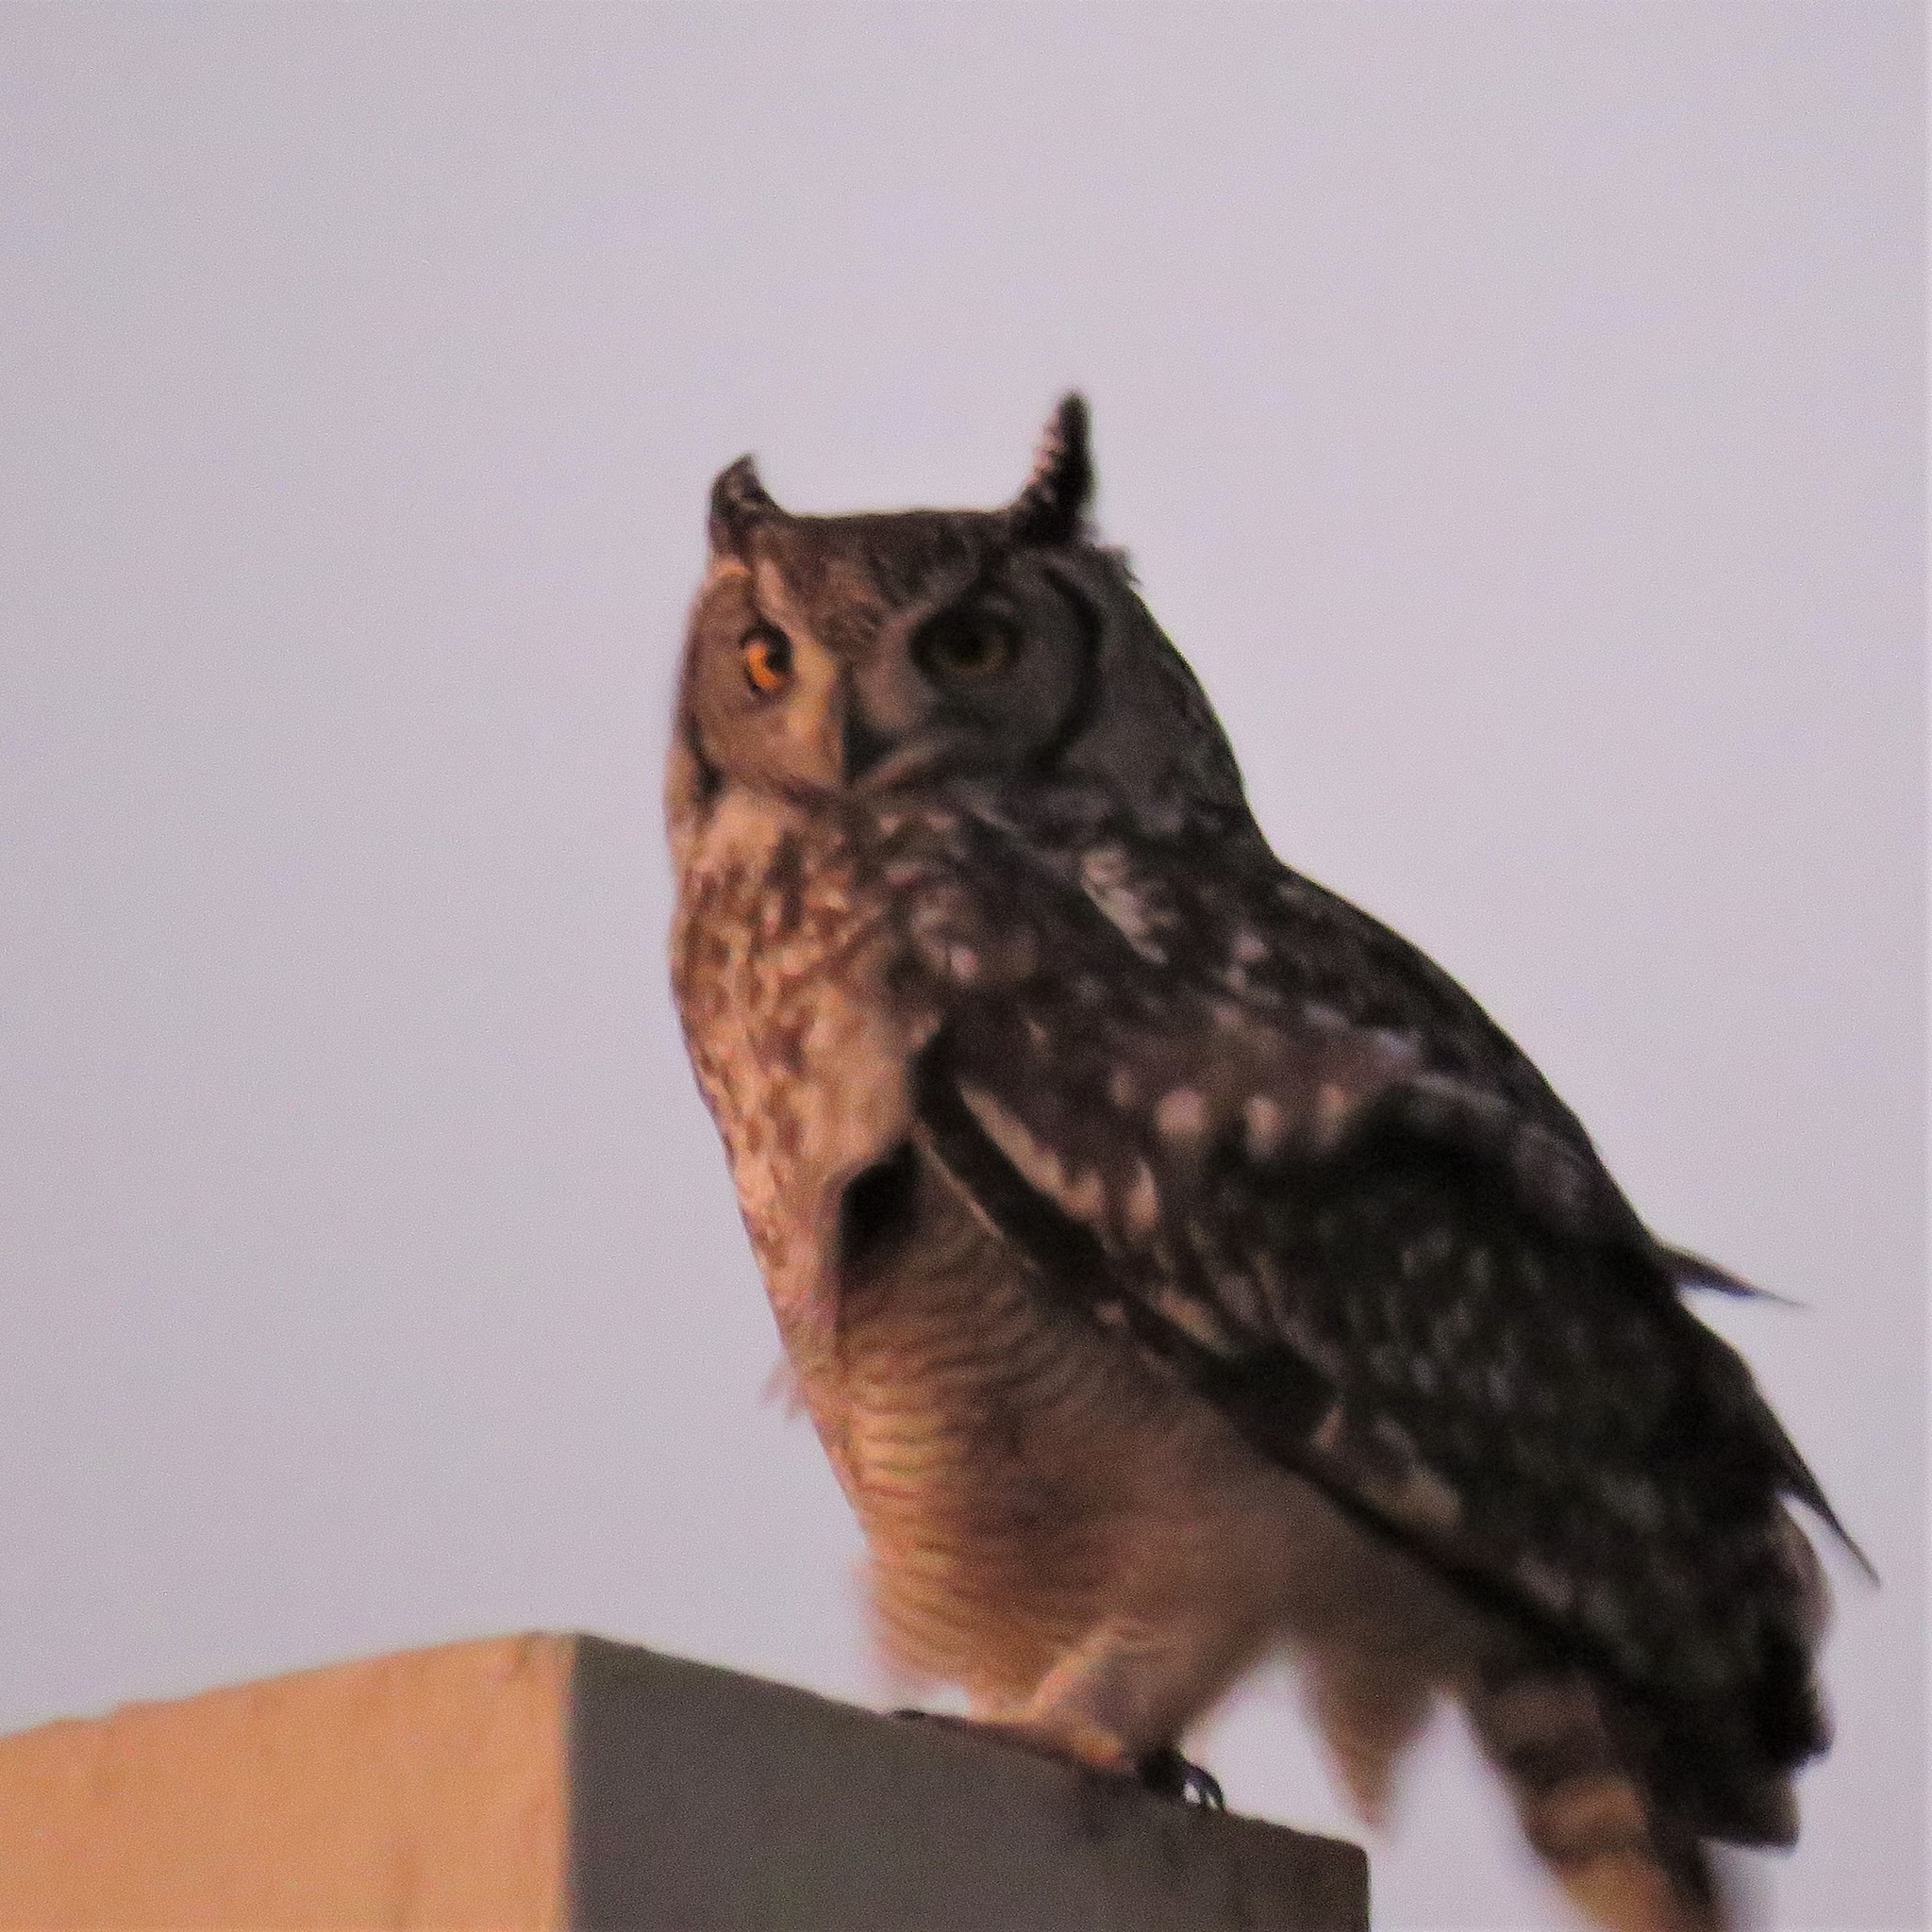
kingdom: Animalia
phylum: Chordata
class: Aves
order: Strigiformes
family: Strigidae
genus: Bubo
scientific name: Bubo africanus
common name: Spotted eagle-owl
